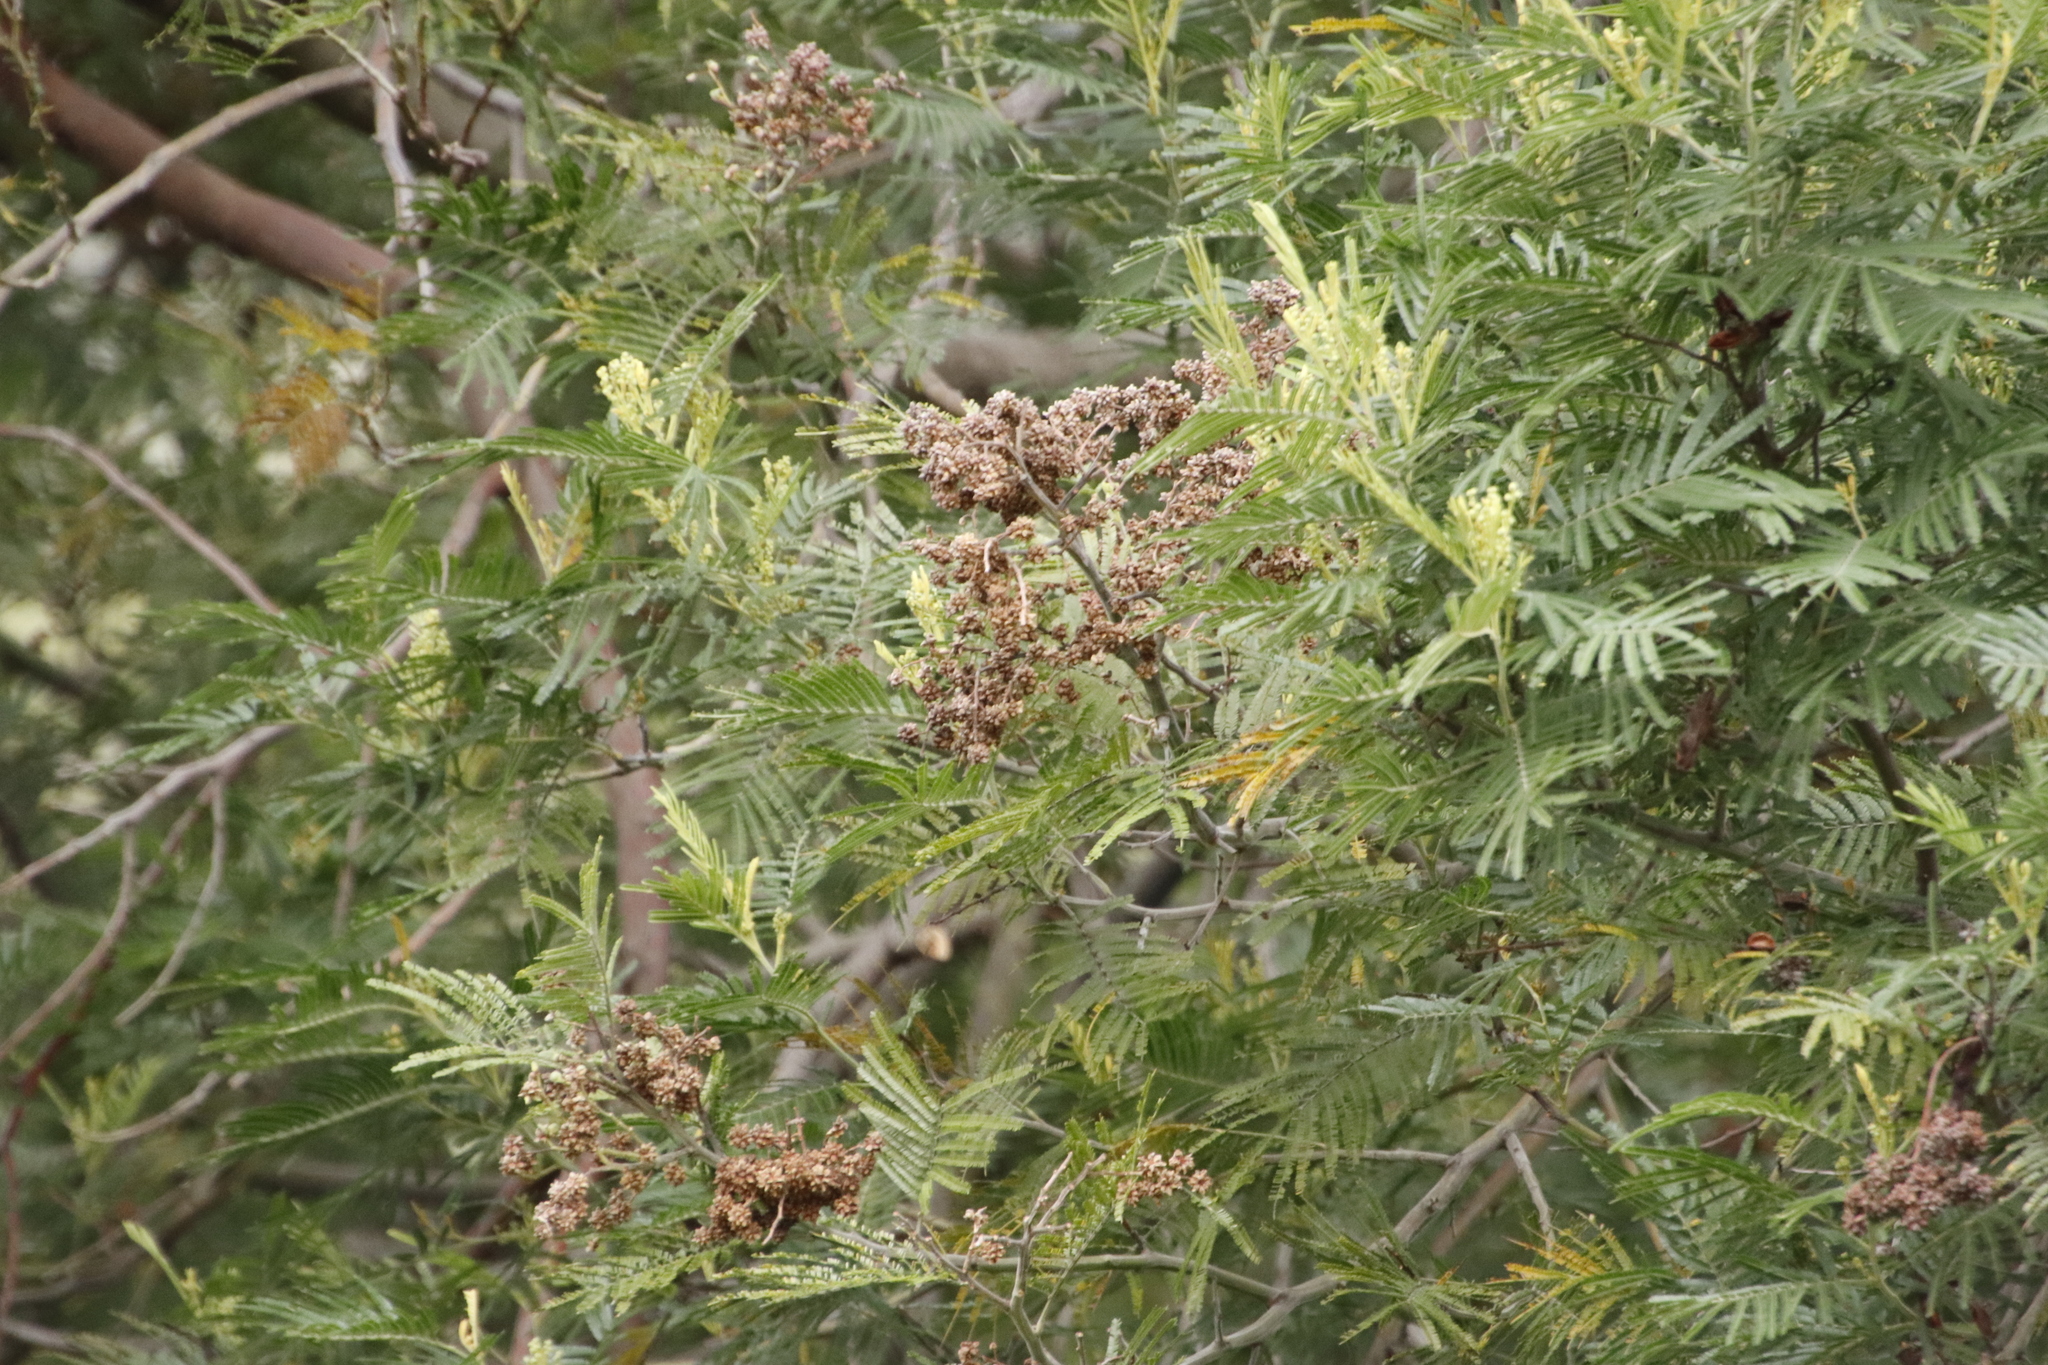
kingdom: Plantae
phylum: Tracheophyta
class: Magnoliopsida
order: Fabales
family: Fabaceae
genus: Acacia
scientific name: Acacia mearnsii
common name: Black wattle
